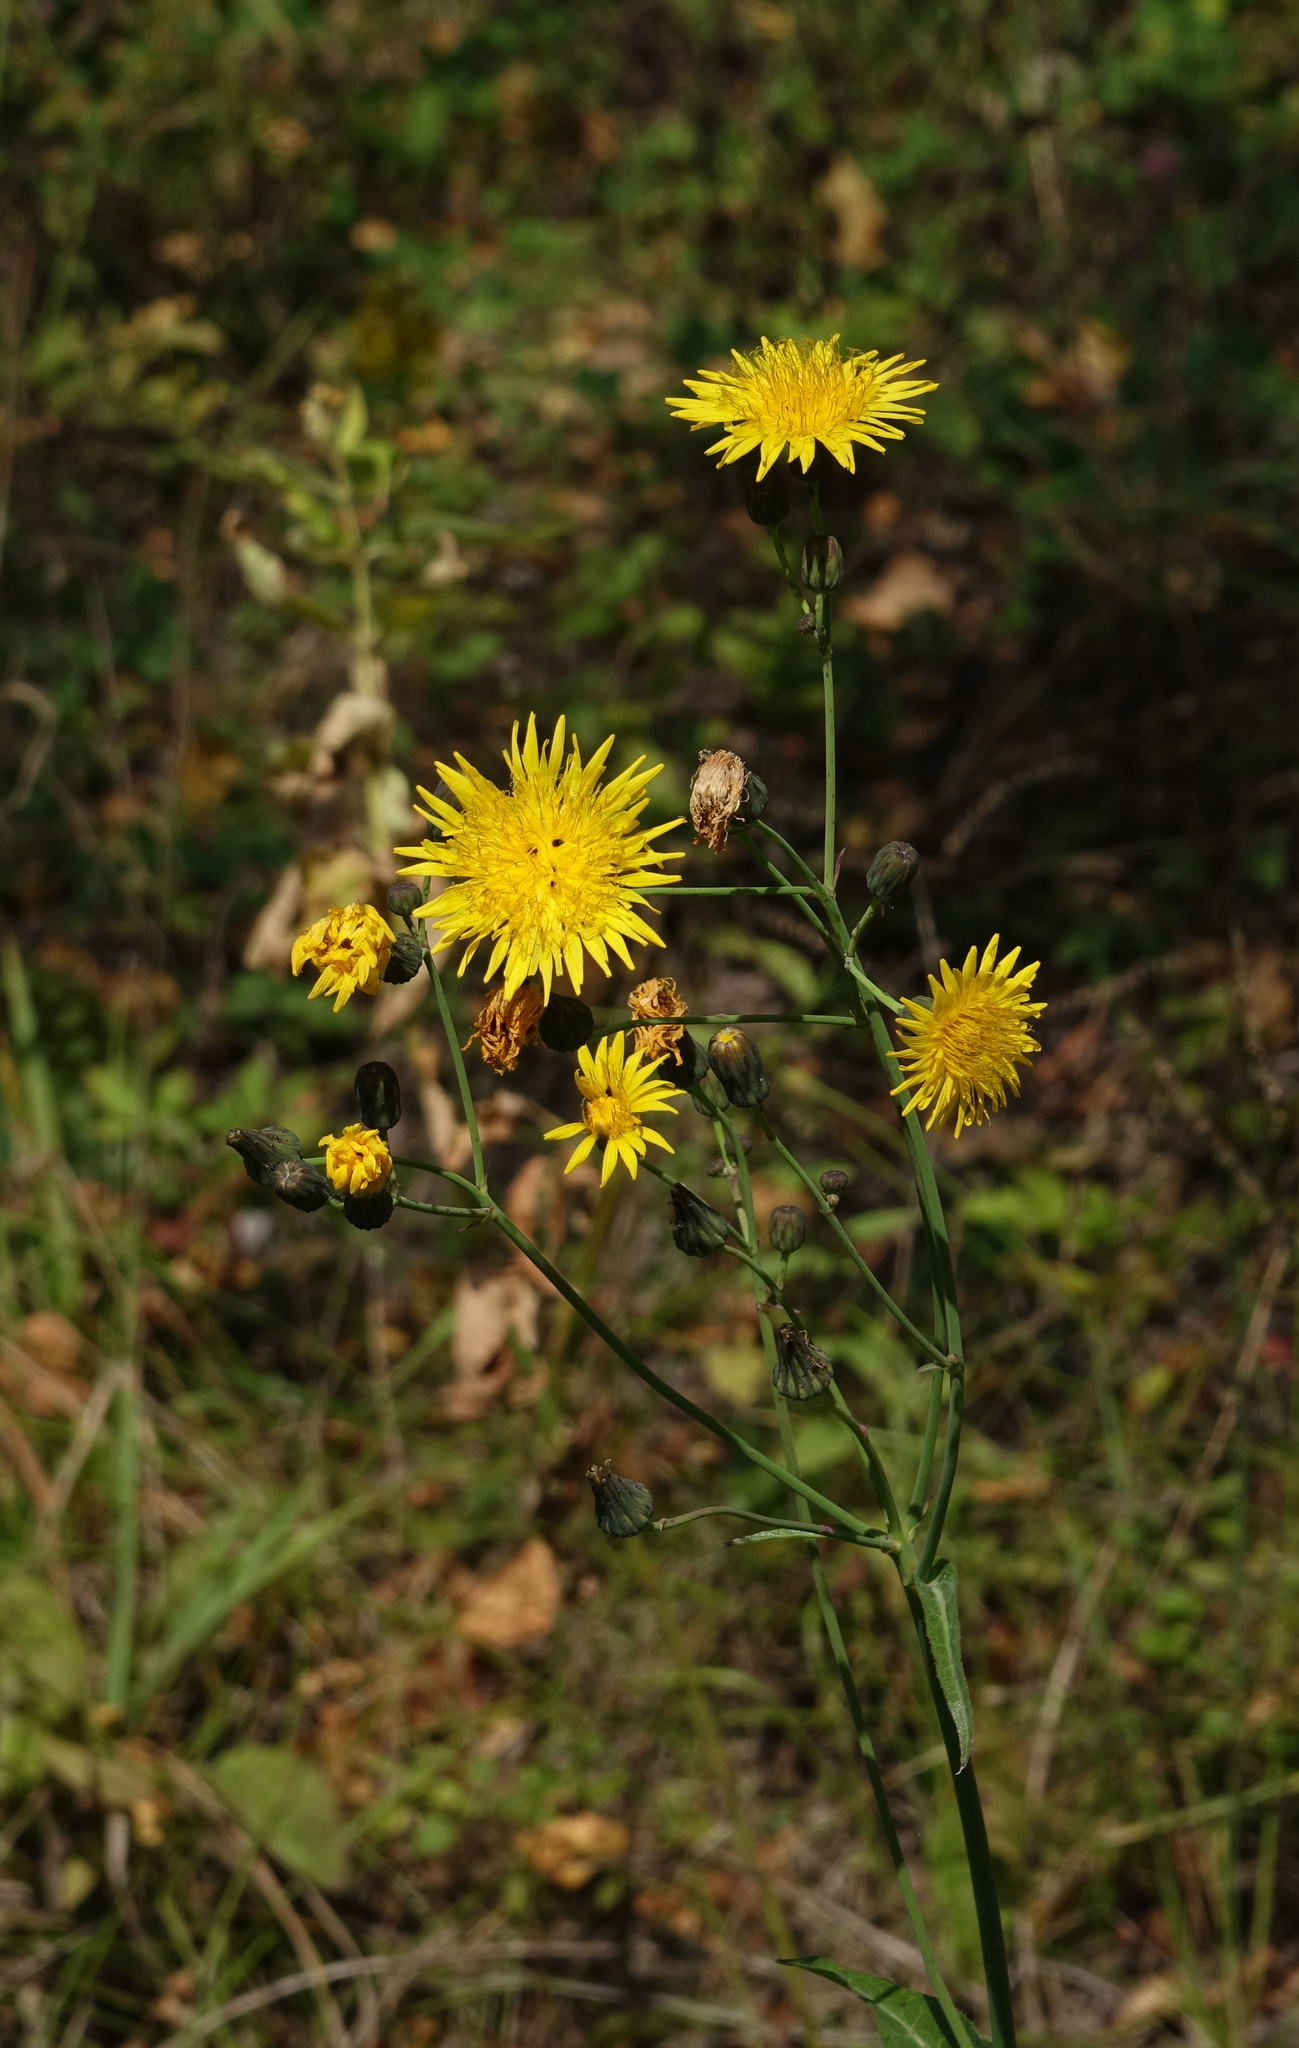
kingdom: Plantae
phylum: Tracheophyta
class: Magnoliopsida
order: Asterales
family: Asteraceae
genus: Sonchus
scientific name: Sonchus arvensis
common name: Perennial sow-thistle
